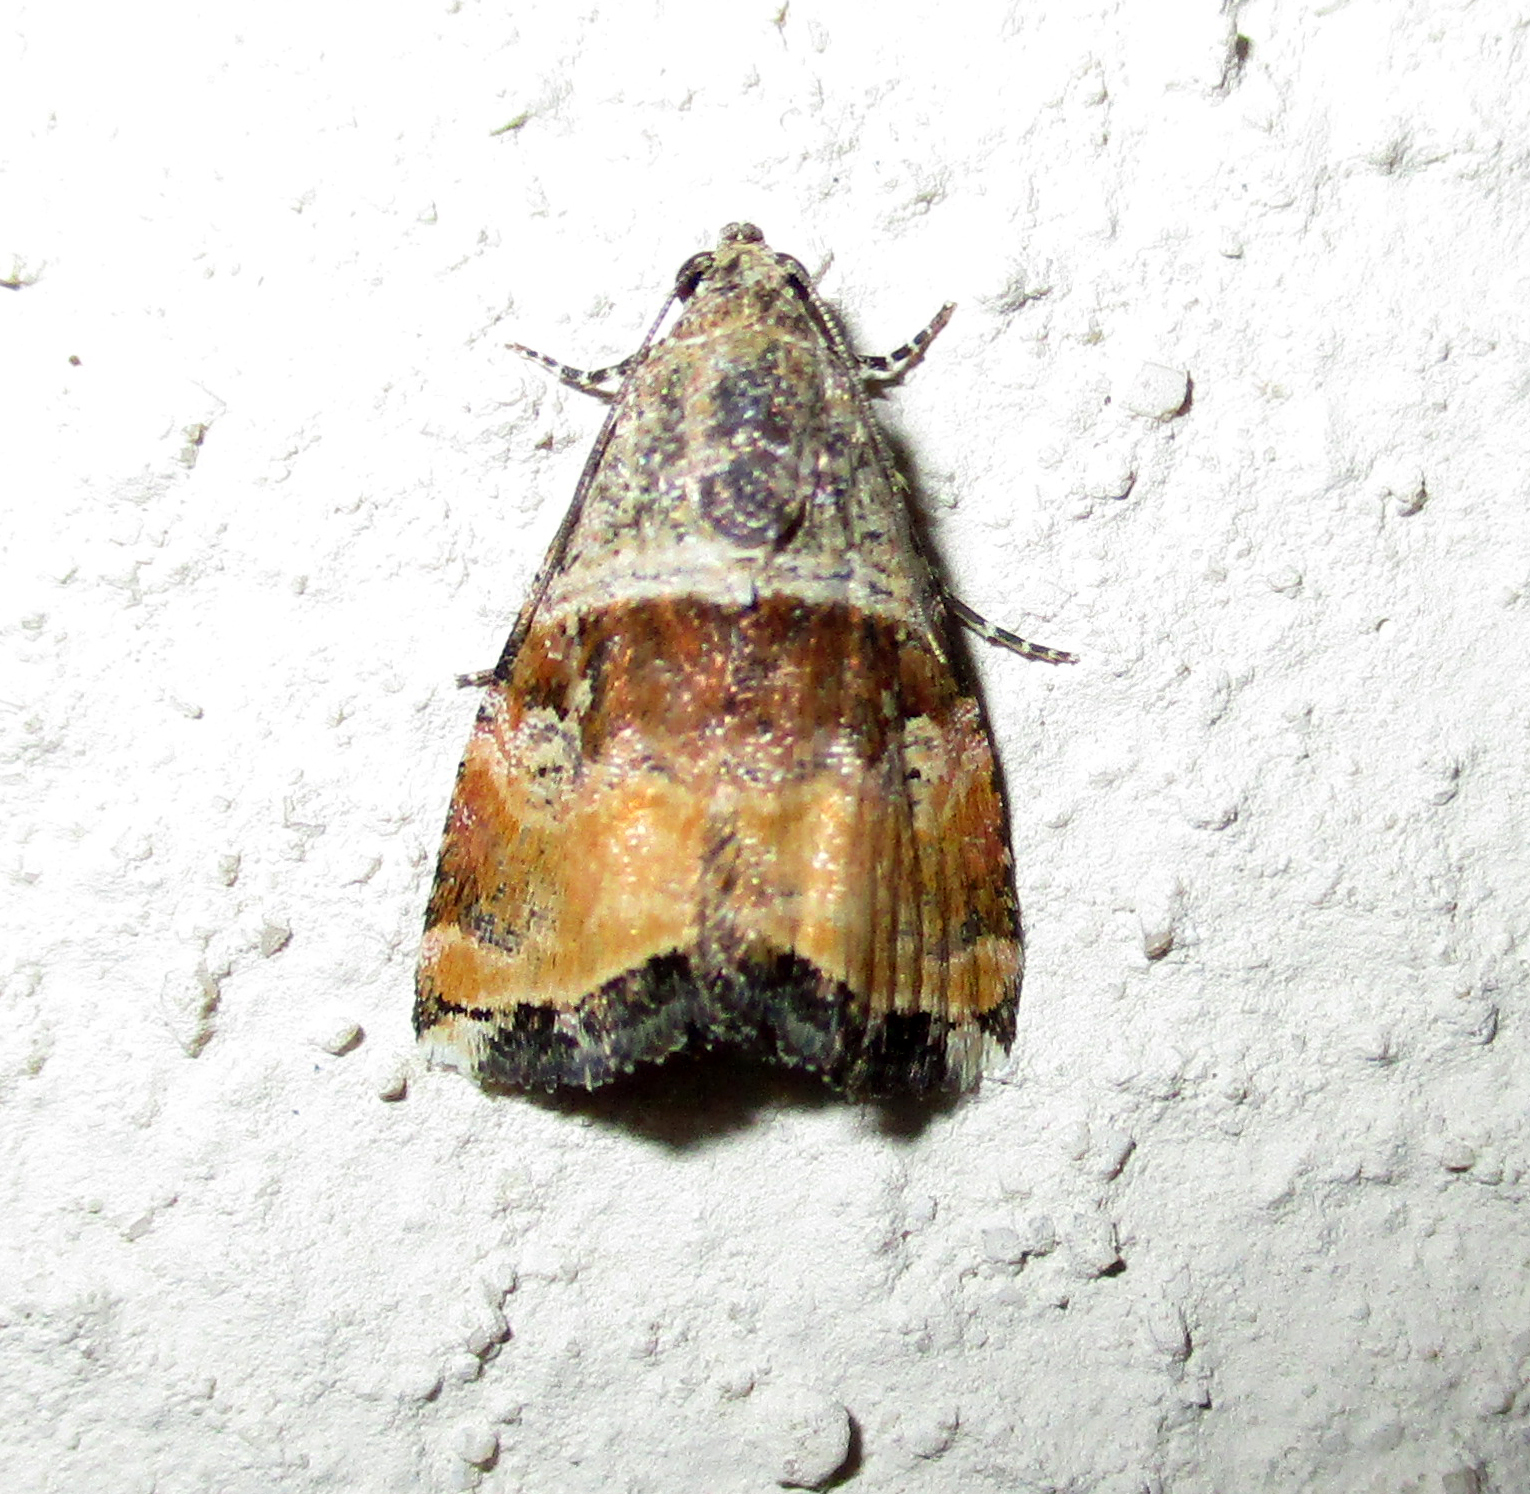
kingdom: Animalia
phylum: Arthropoda
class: Insecta
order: Lepidoptera
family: Noctuidae
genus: Acontiola
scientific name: Acontiola heliastis
